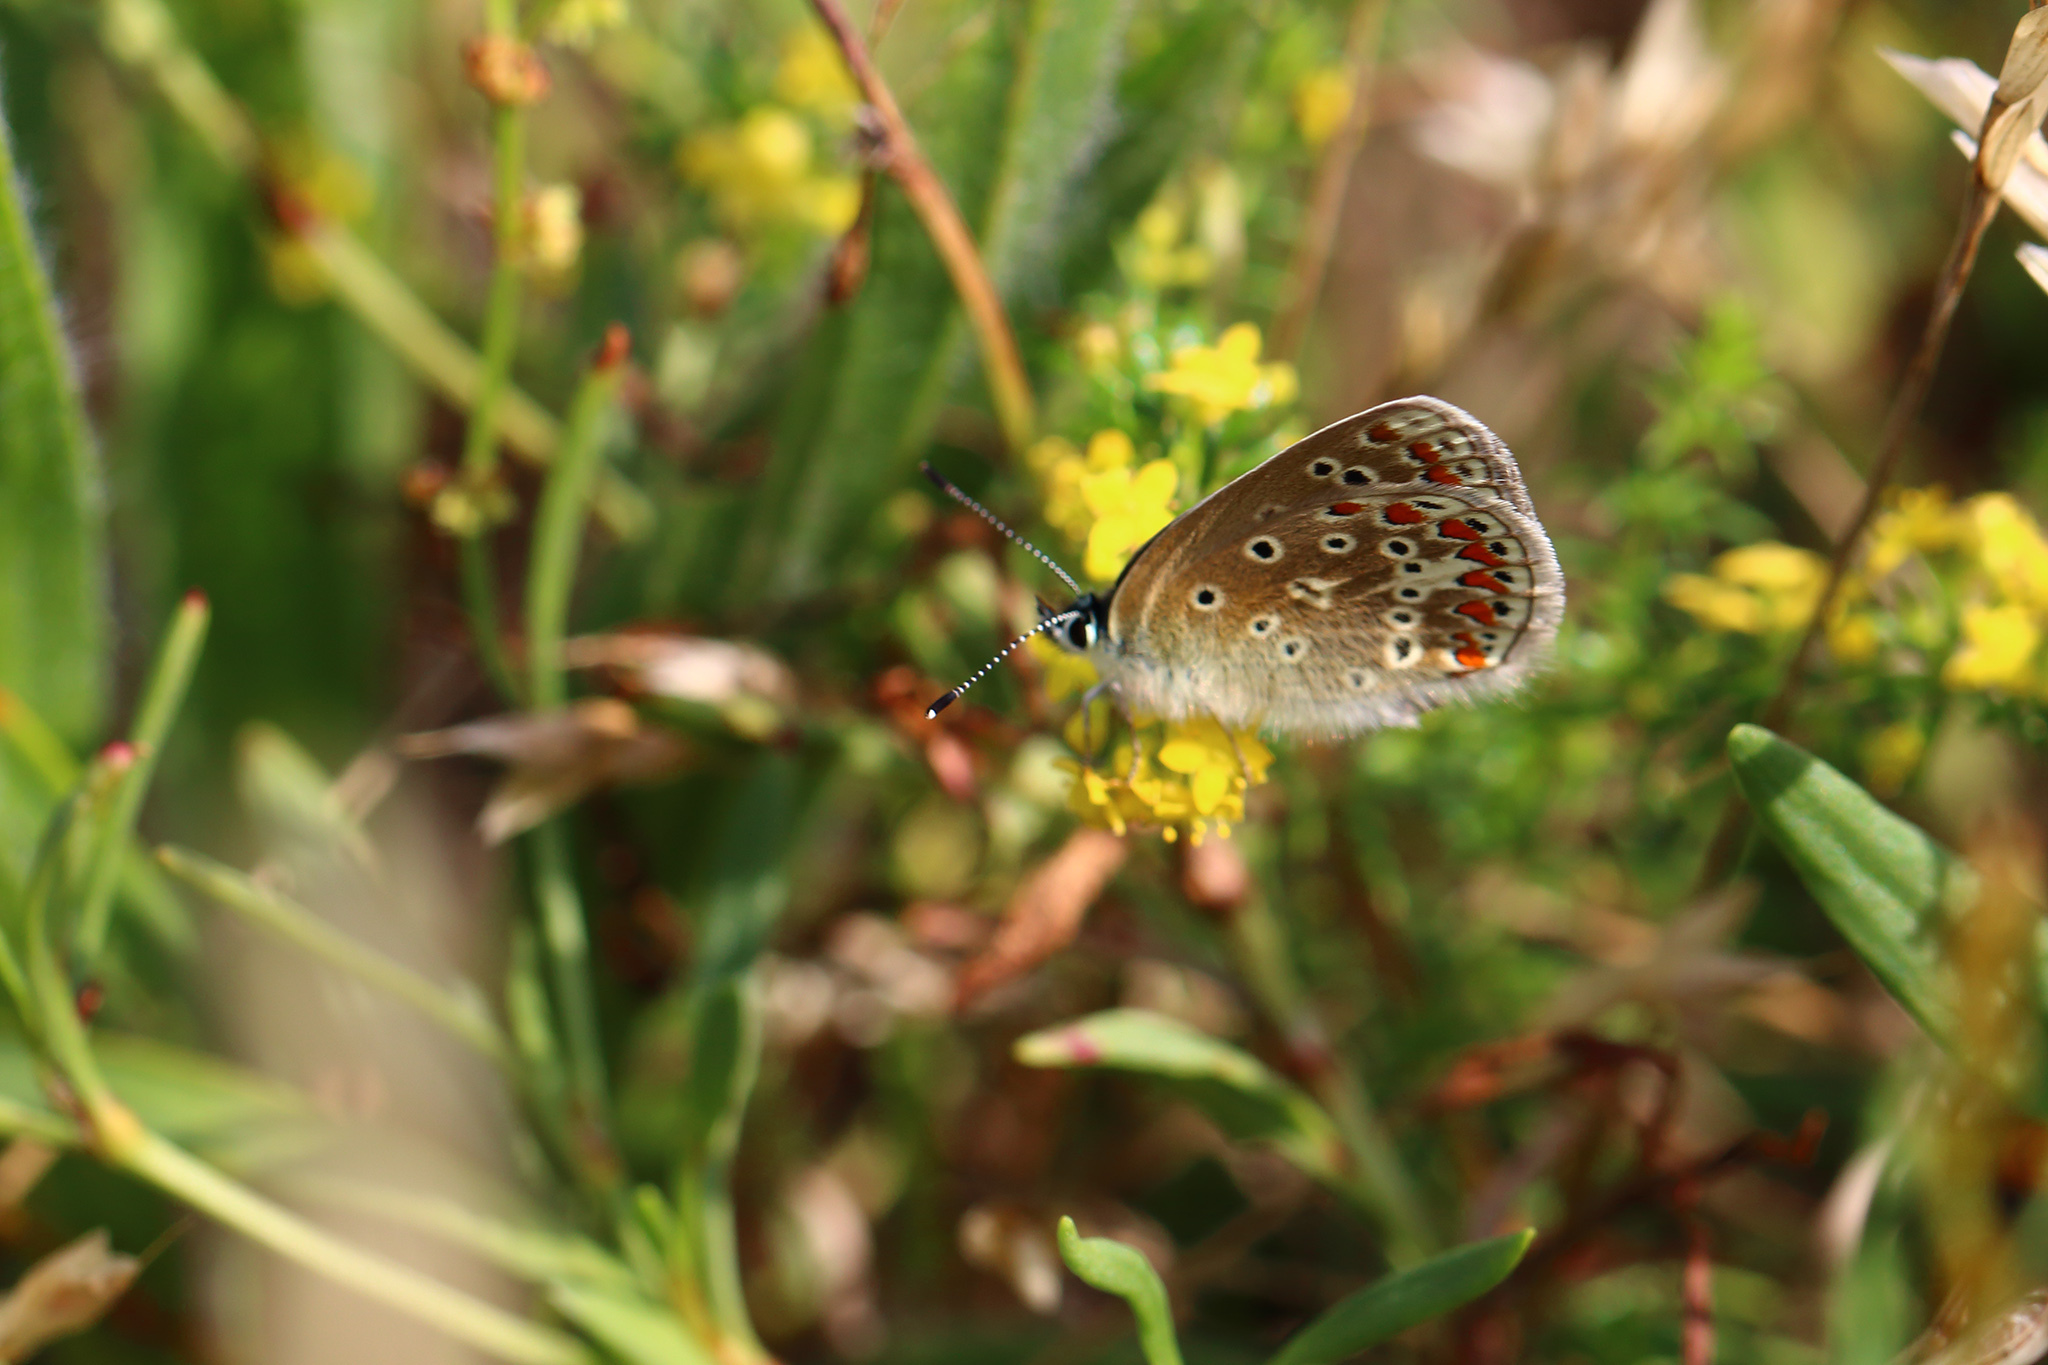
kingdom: Animalia
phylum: Arthropoda
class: Insecta
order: Lepidoptera
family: Lycaenidae
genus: Polyommatus
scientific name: Polyommatus icarus
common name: Common blue
